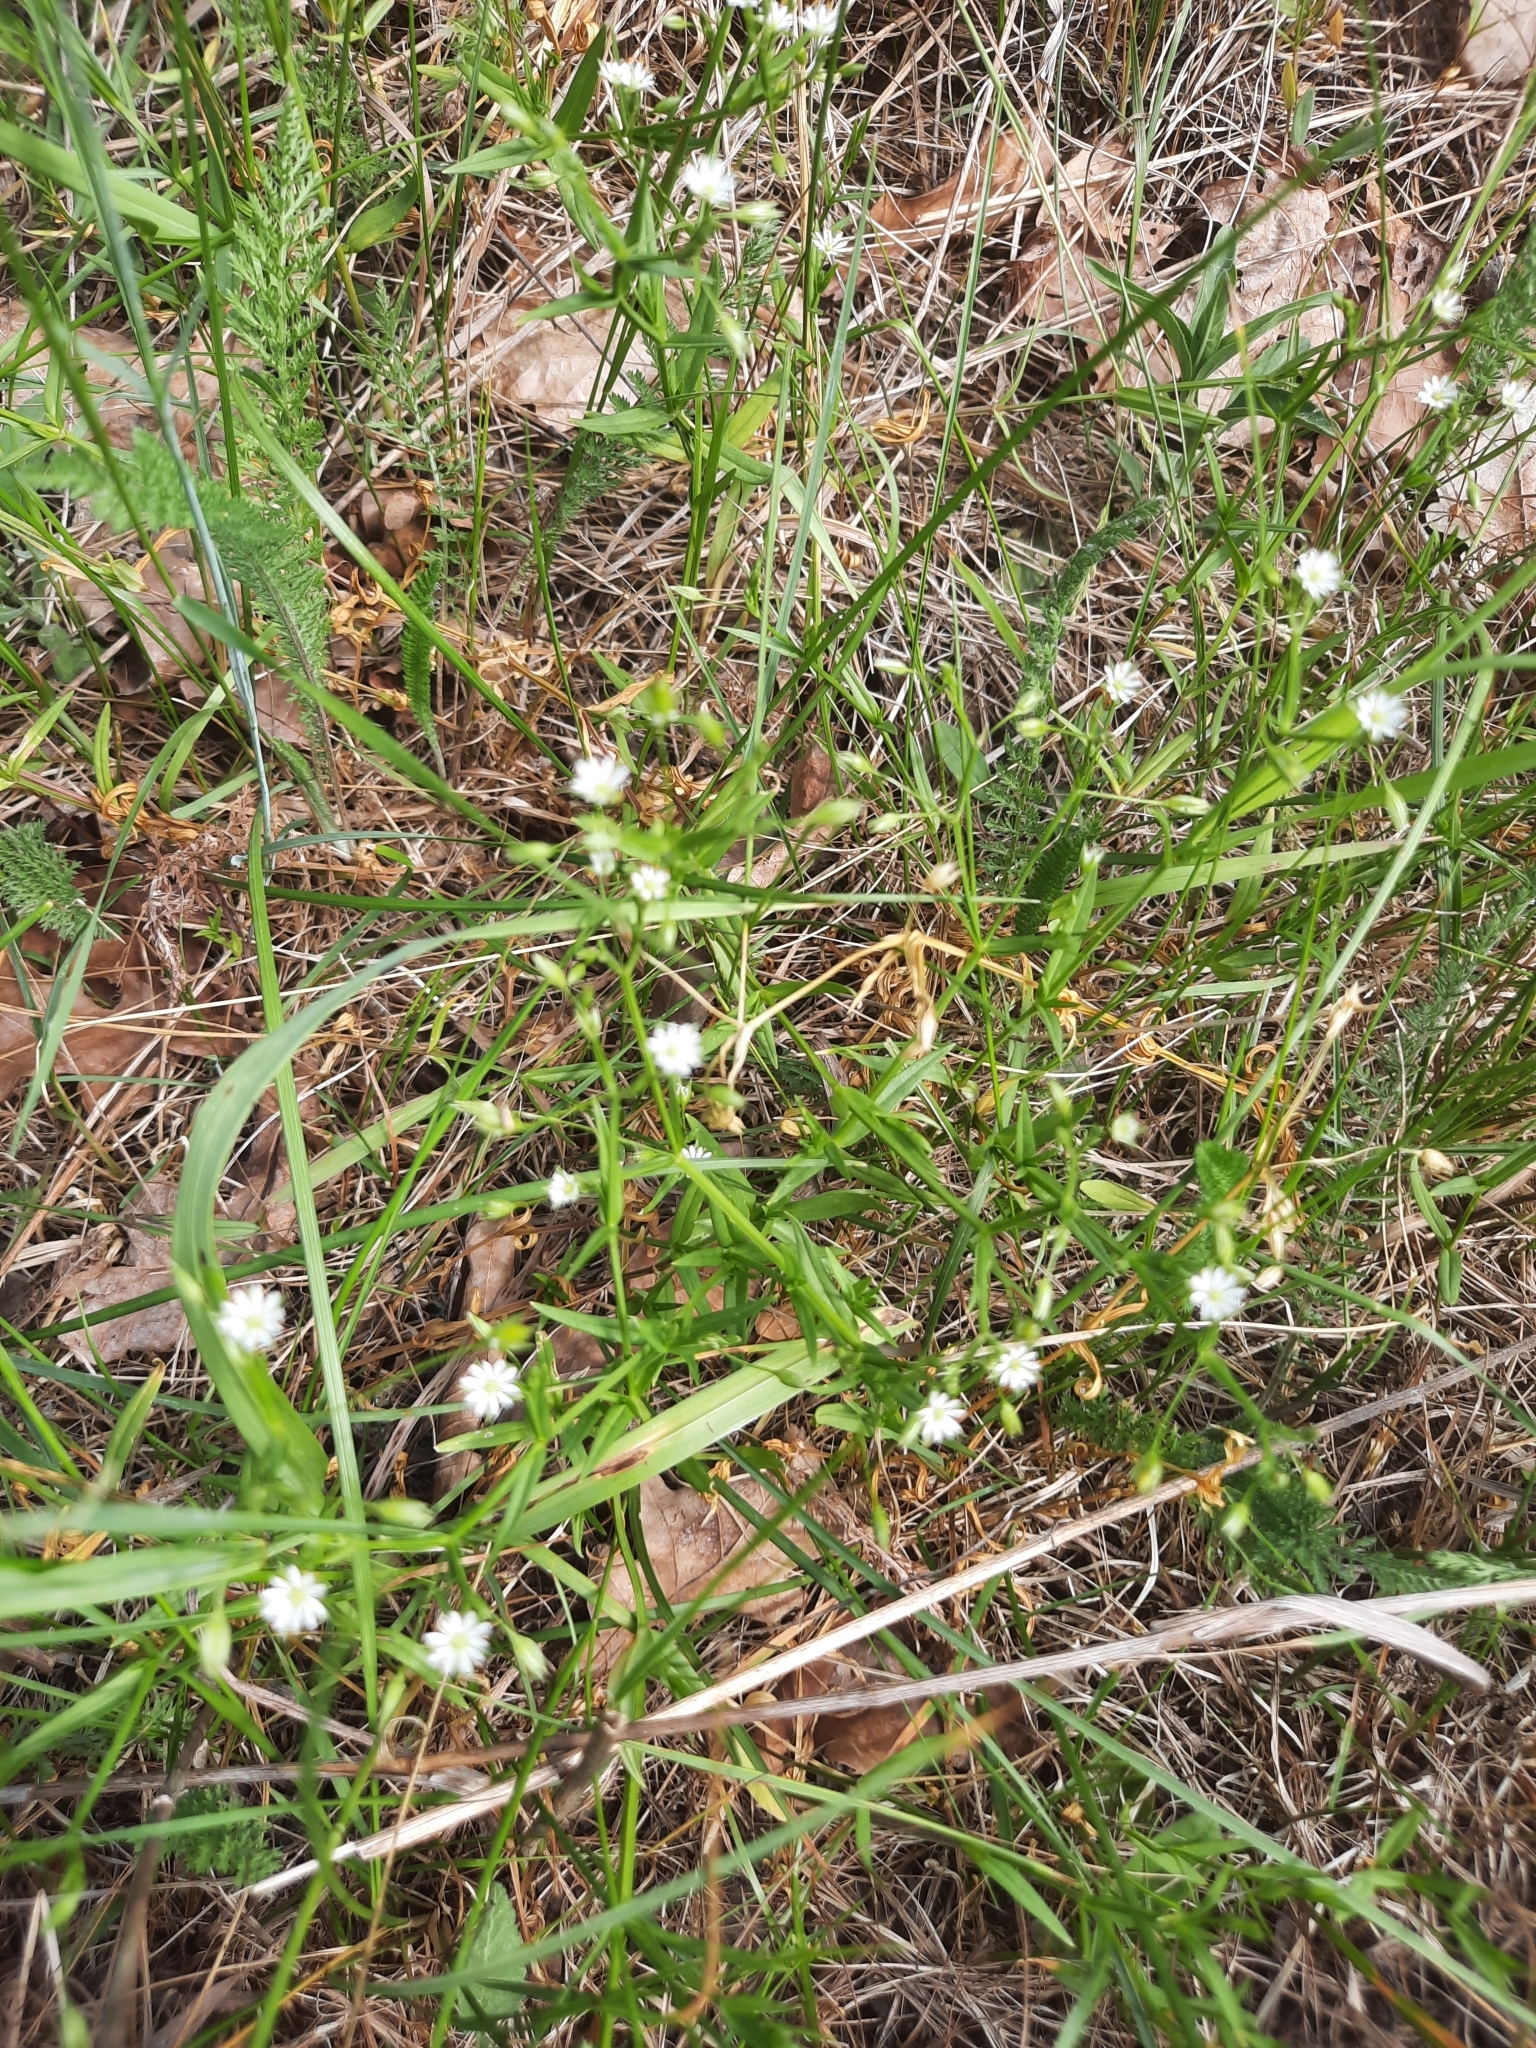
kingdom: Plantae
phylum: Tracheophyta
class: Magnoliopsida
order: Caryophyllales
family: Caryophyllaceae
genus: Stellaria
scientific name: Stellaria graminea
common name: Grass-like starwort
